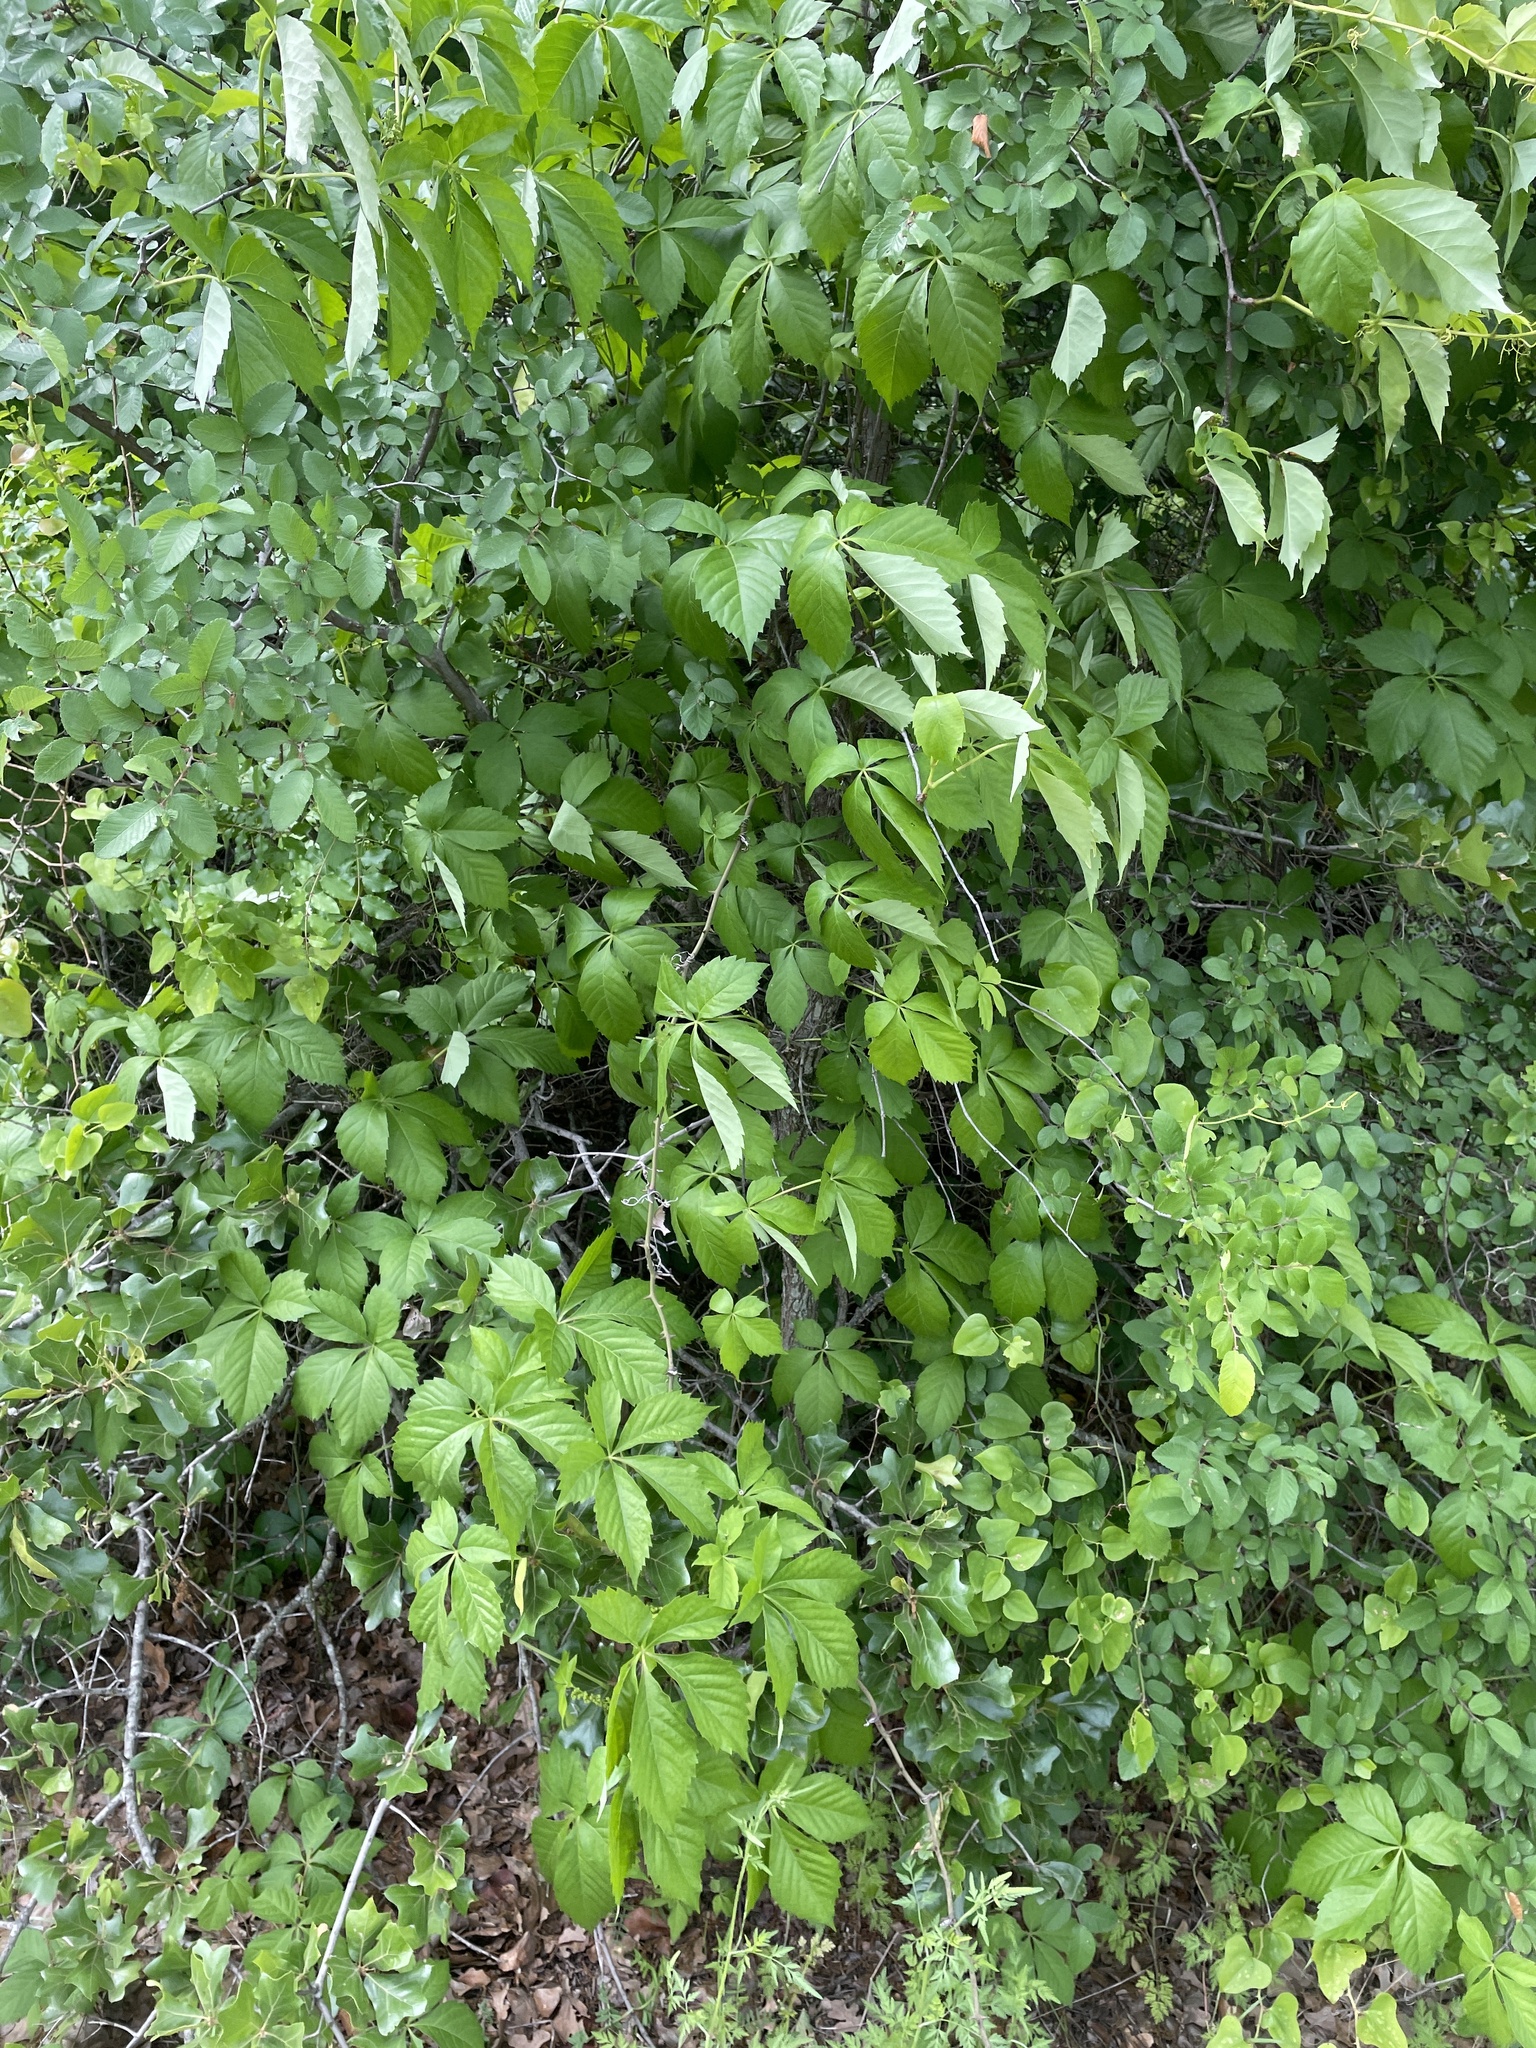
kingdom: Plantae
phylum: Tracheophyta
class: Magnoliopsida
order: Vitales
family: Vitaceae
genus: Parthenocissus
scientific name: Parthenocissus quinquefolia
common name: Virginia-creeper
